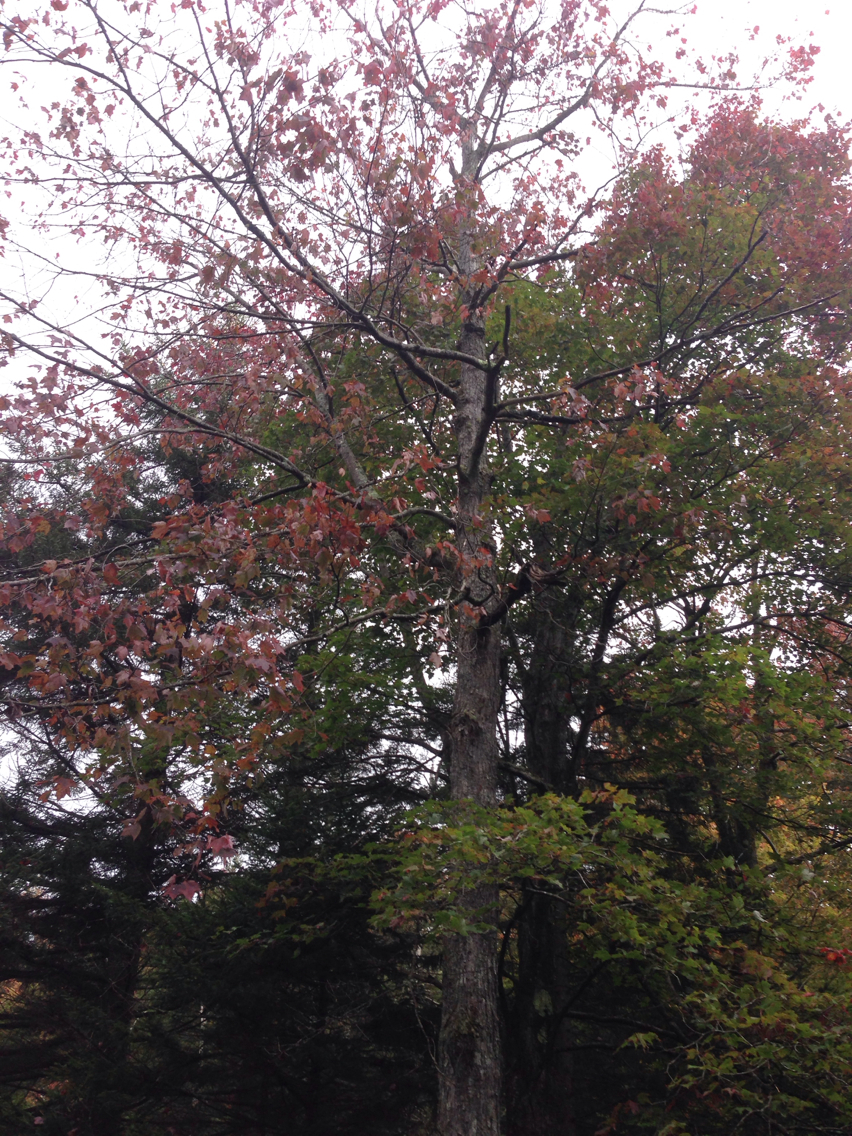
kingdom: Plantae
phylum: Tracheophyta
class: Magnoliopsida
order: Sapindales
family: Sapindaceae
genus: Acer
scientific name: Acer rubrum
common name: Red maple
